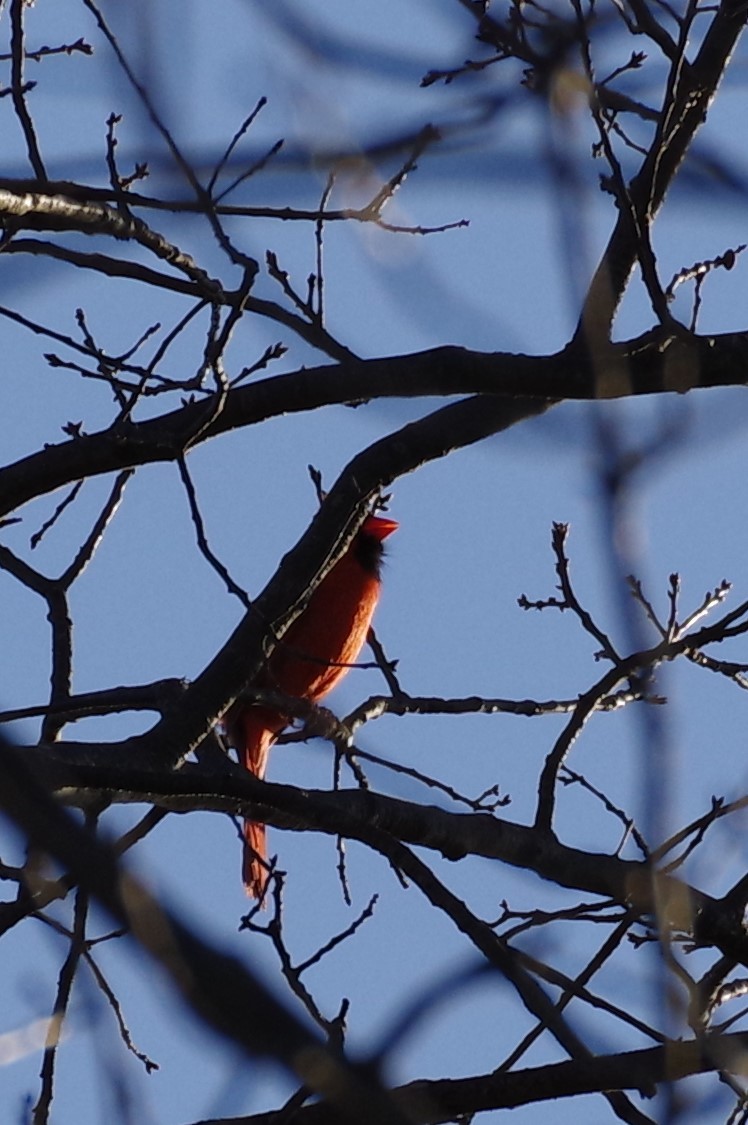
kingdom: Animalia
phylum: Chordata
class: Aves
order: Passeriformes
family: Cardinalidae
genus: Cardinalis
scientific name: Cardinalis cardinalis
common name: Northern cardinal
